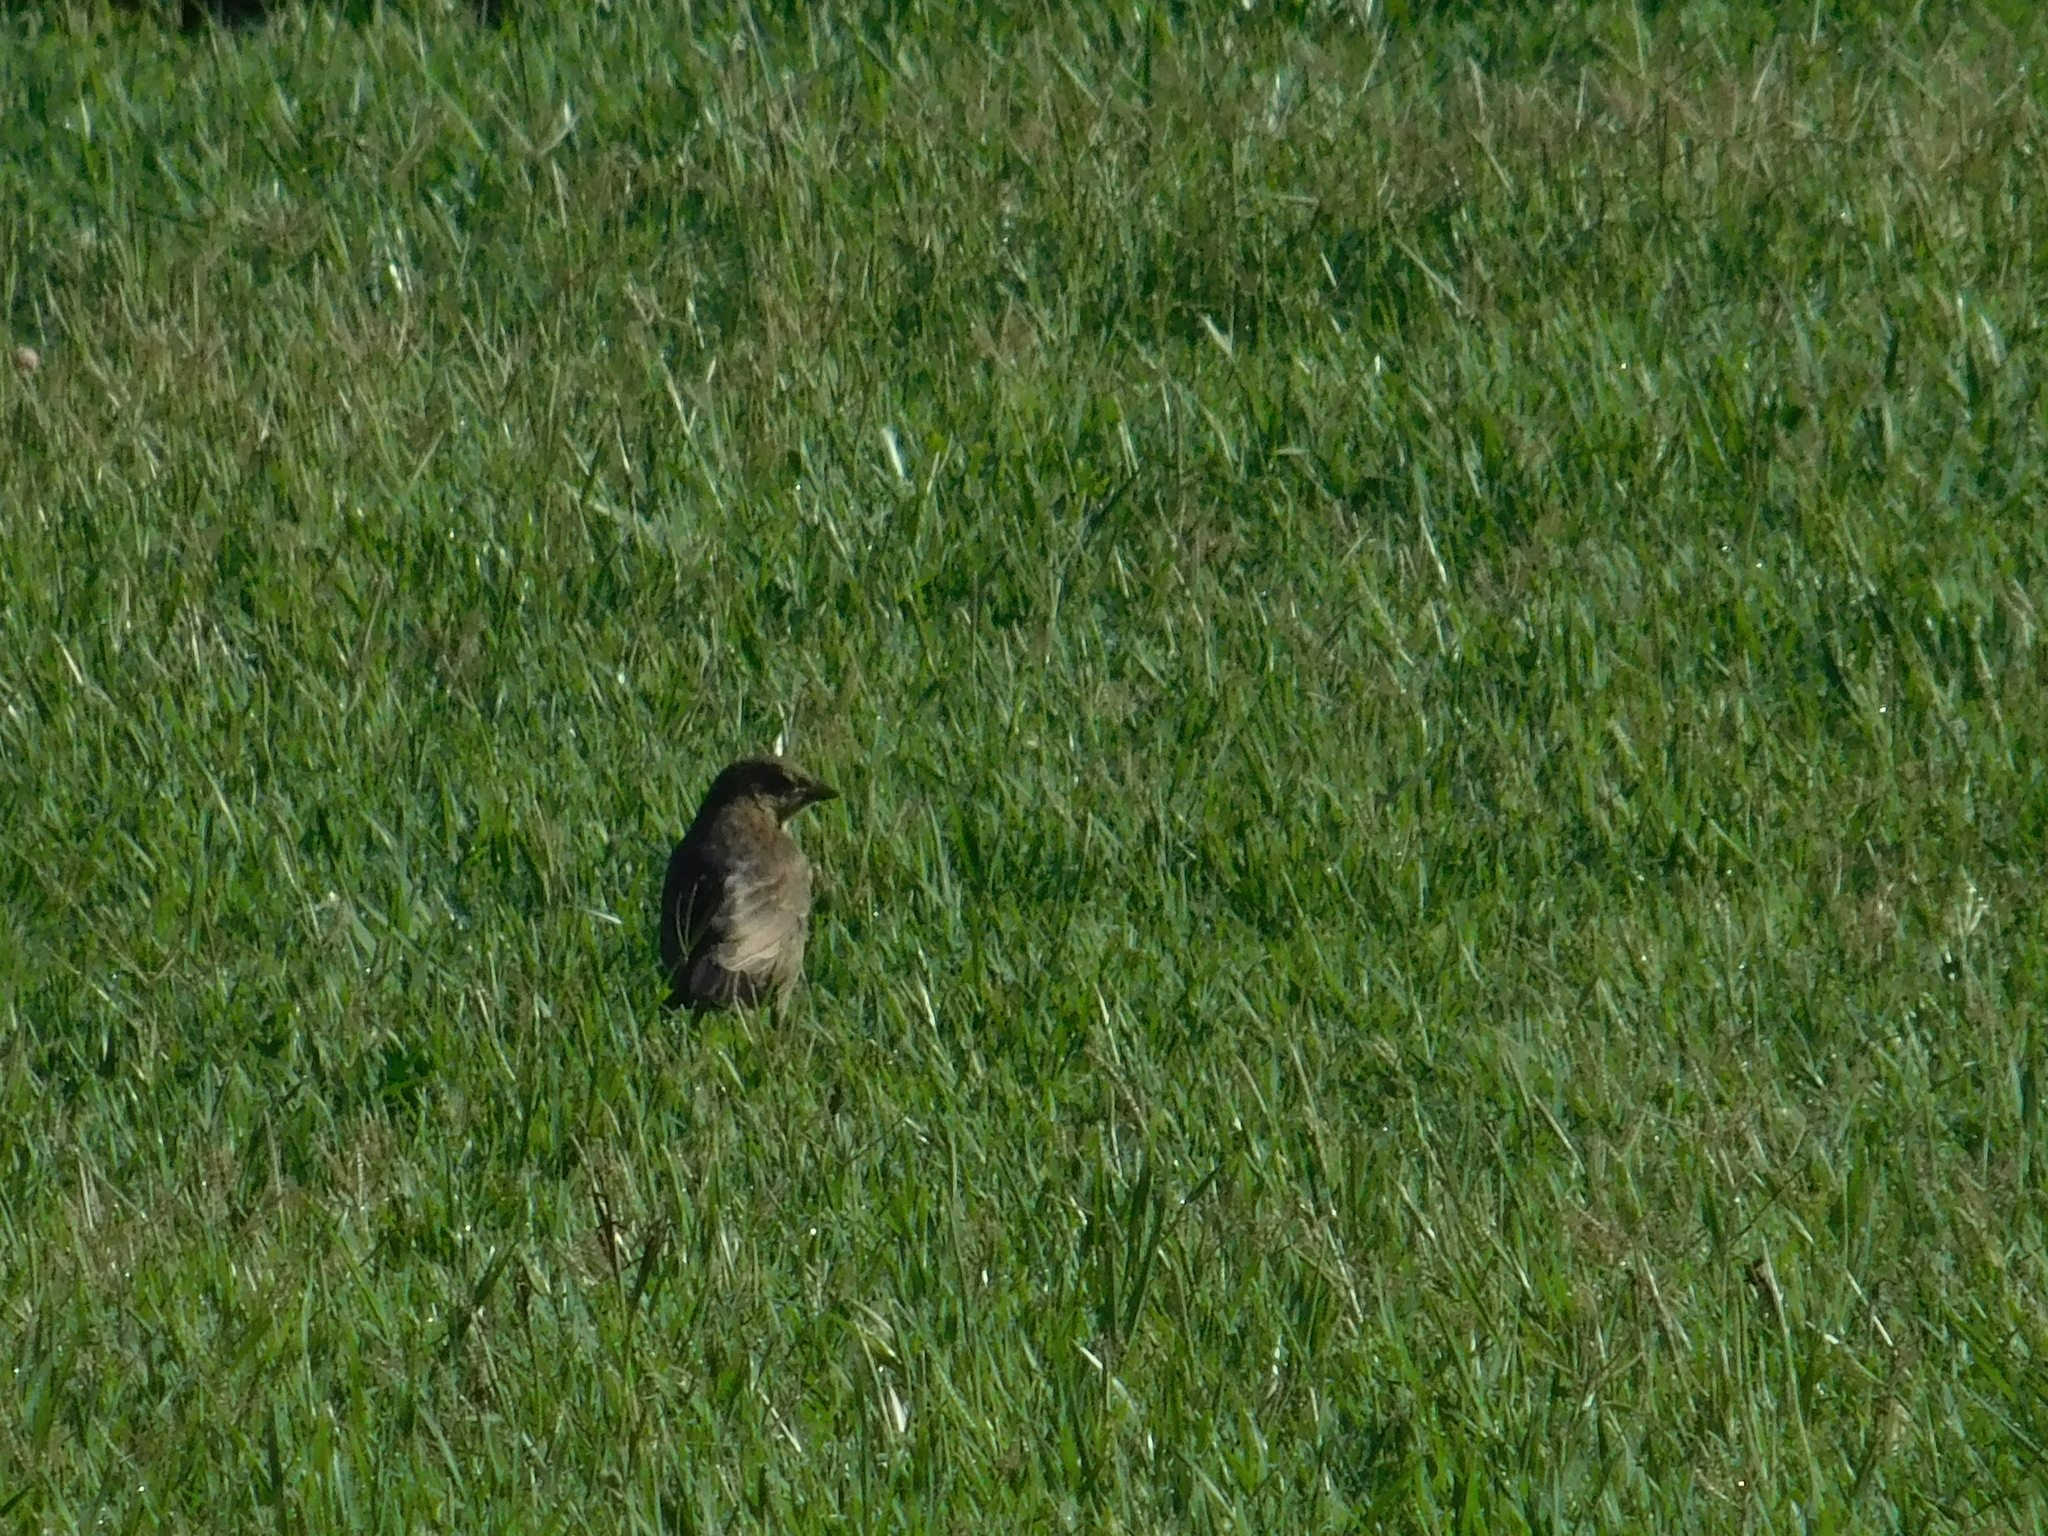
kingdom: Animalia
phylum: Chordata
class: Aves
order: Passeriformes
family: Icteridae
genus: Molothrus
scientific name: Molothrus bonariensis
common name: Shiny cowbird
